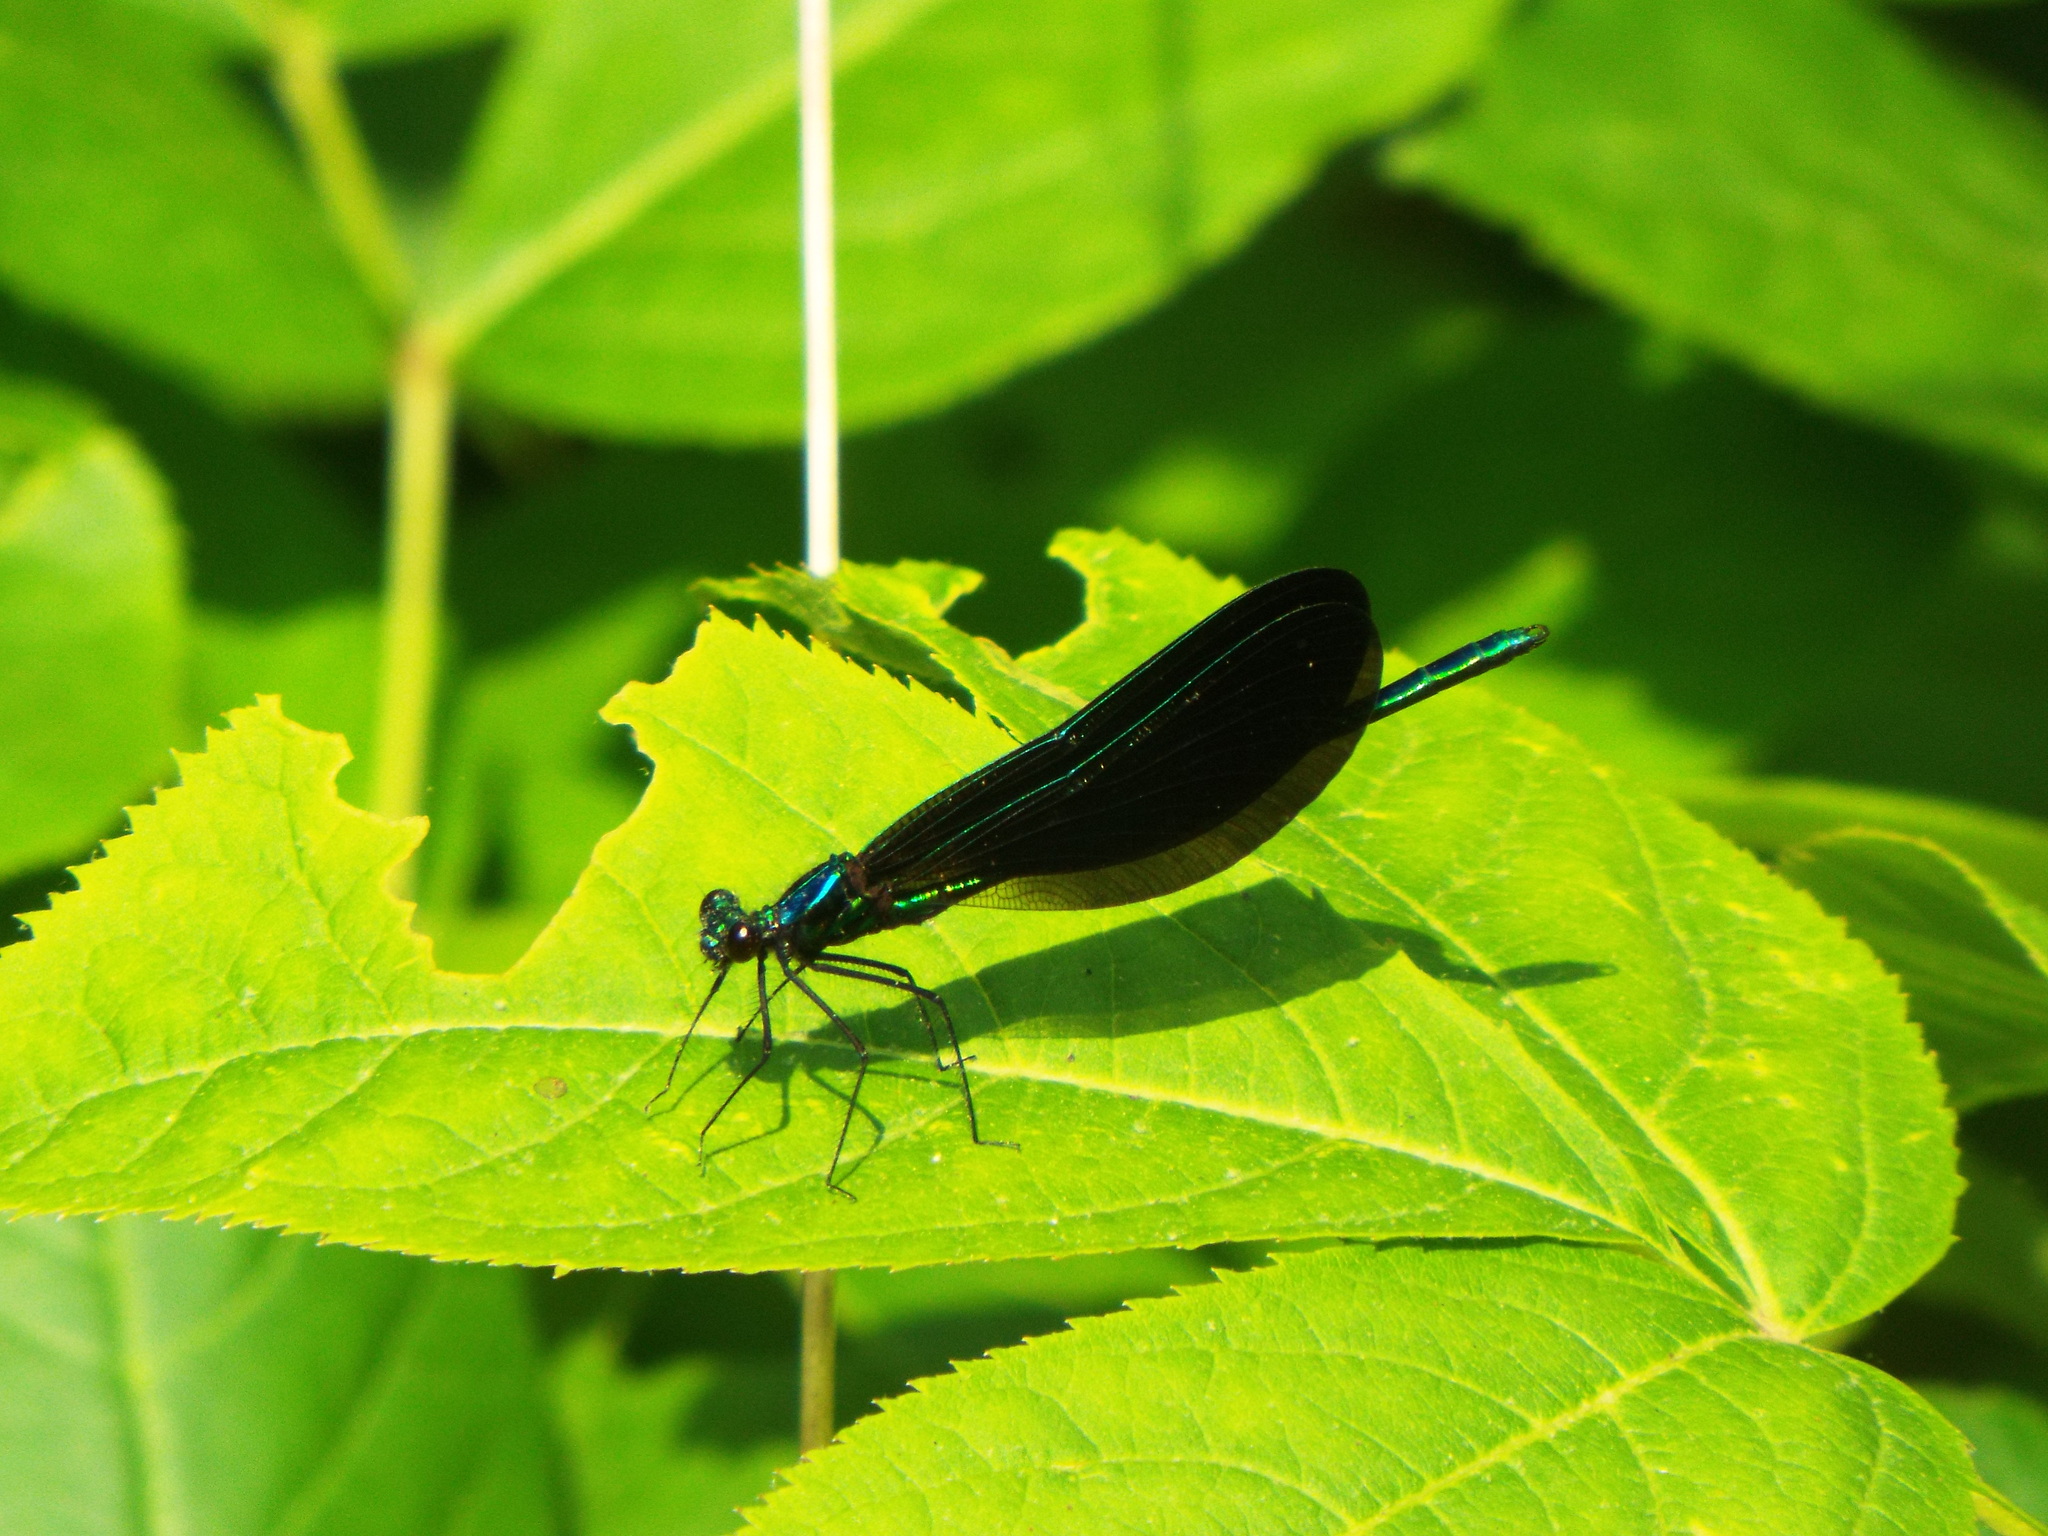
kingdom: Animalia
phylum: Arthropoda
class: Insecta
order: Odonata
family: Calopterygidae
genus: Calopteryx
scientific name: Calopteryx maculata
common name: Ebony jewelwing
